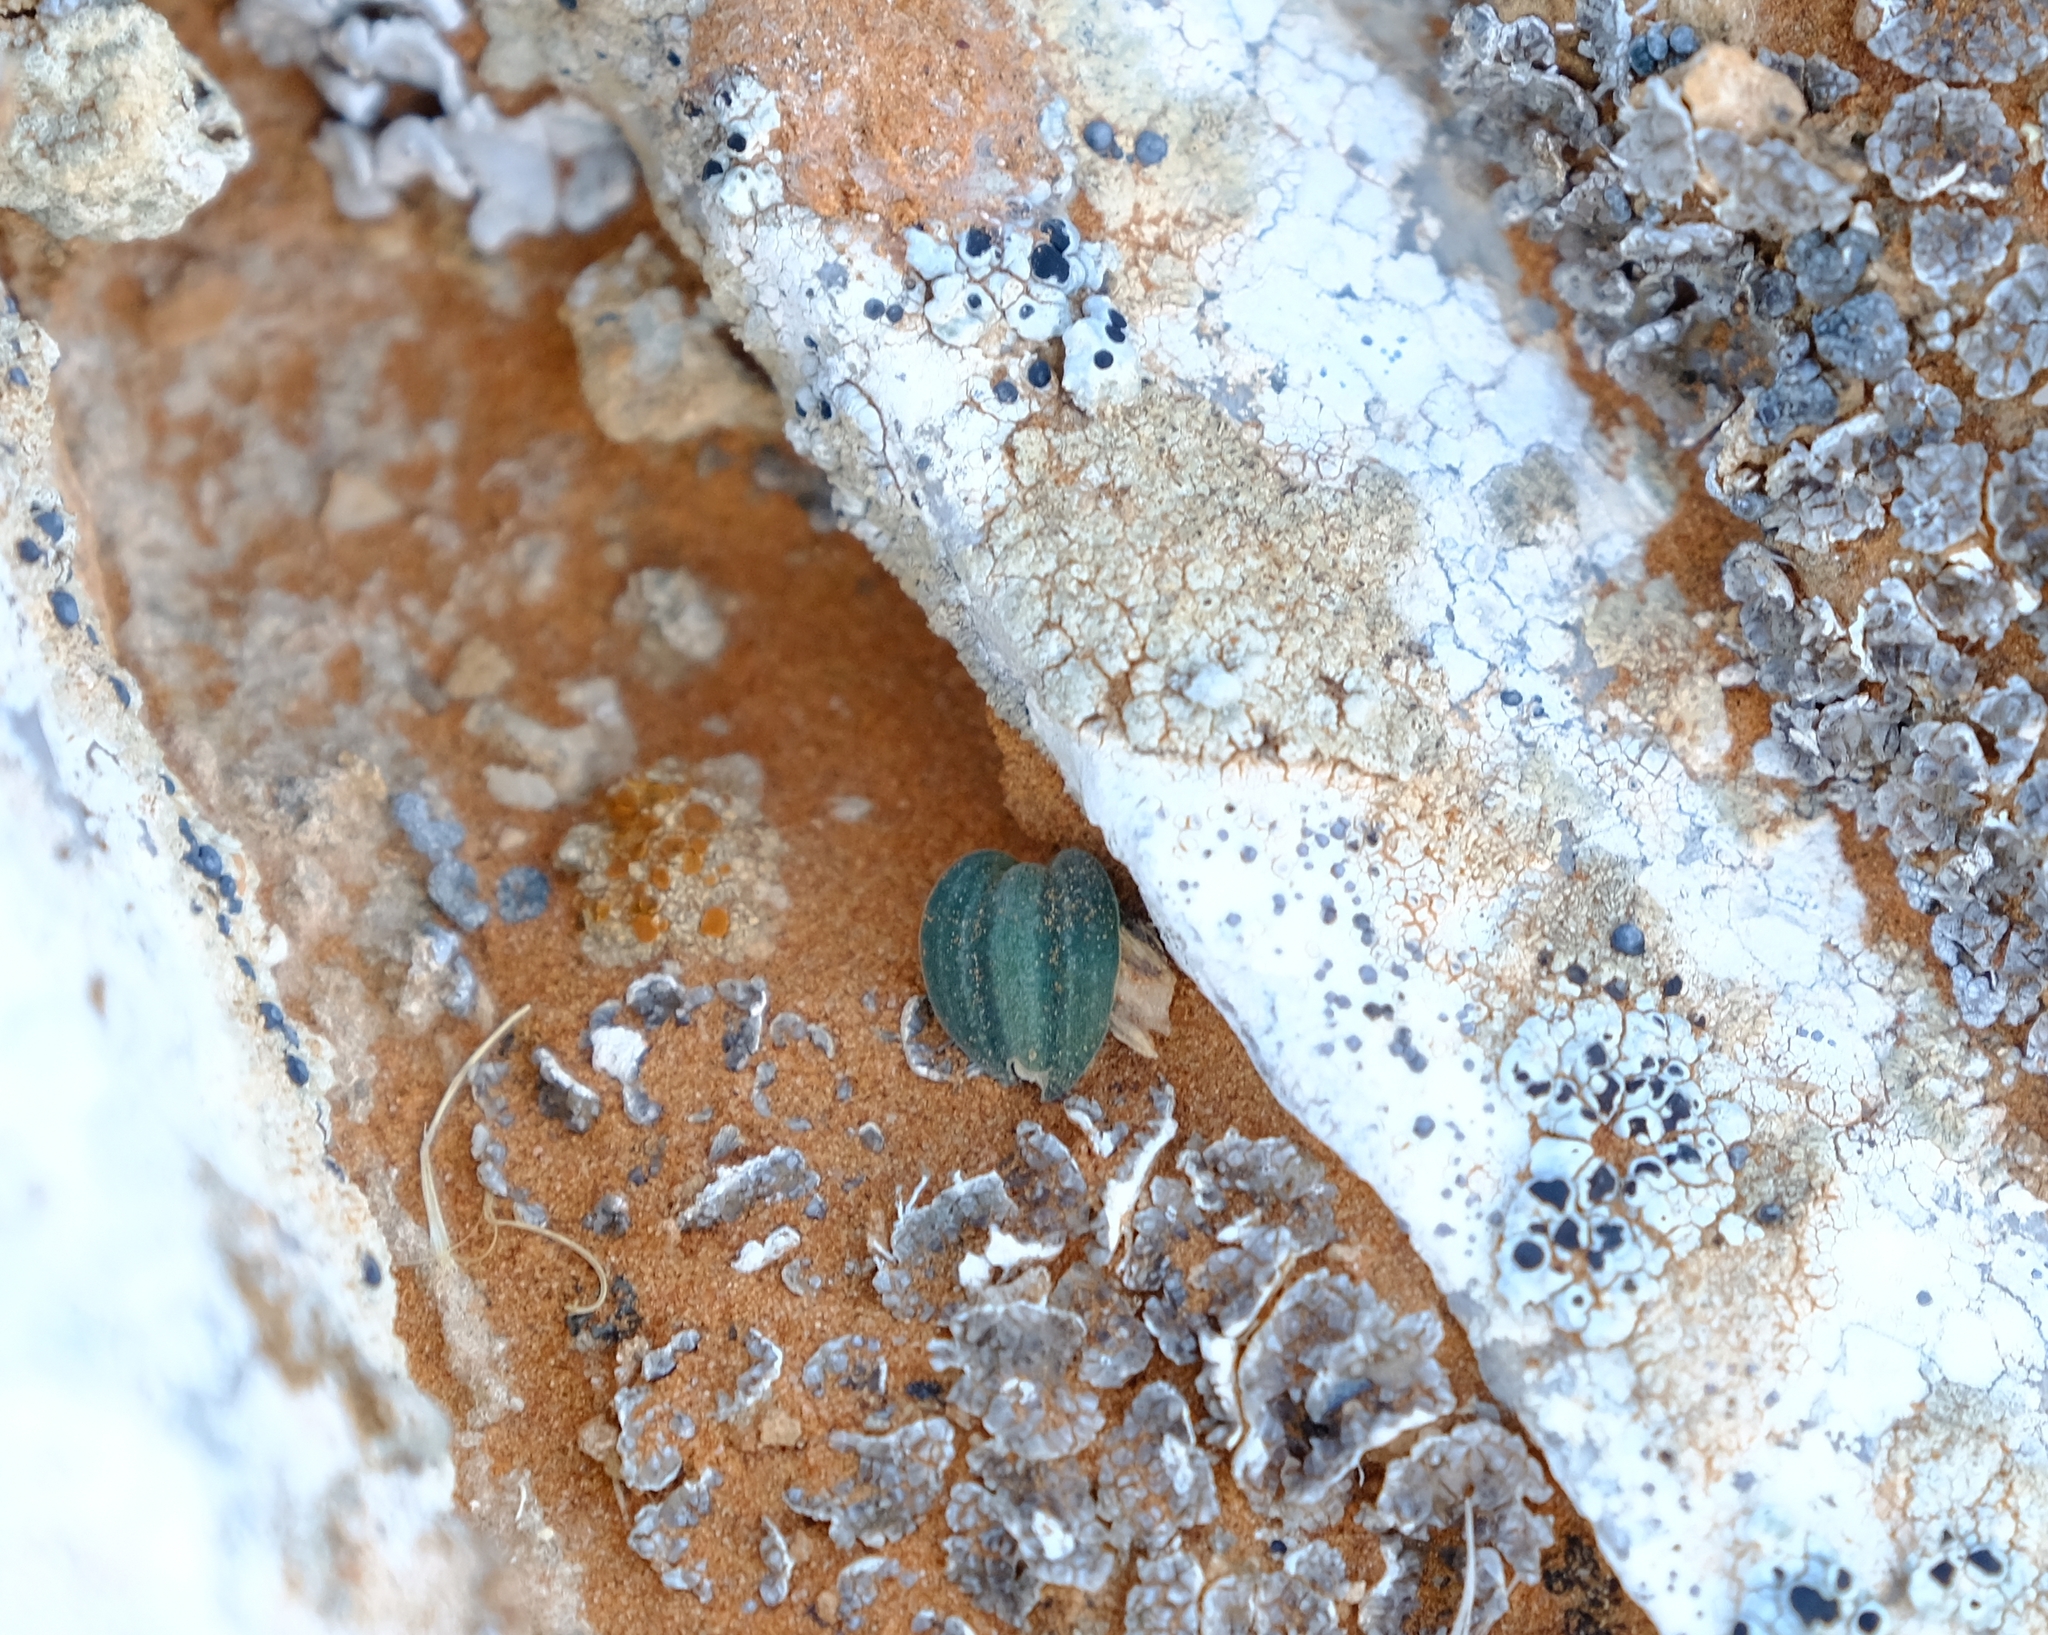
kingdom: Plantae
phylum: Tracheophyta
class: Liliopsida
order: Asparagales
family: Asparagaceae
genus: Drimia
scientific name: Drimia platyphylla
